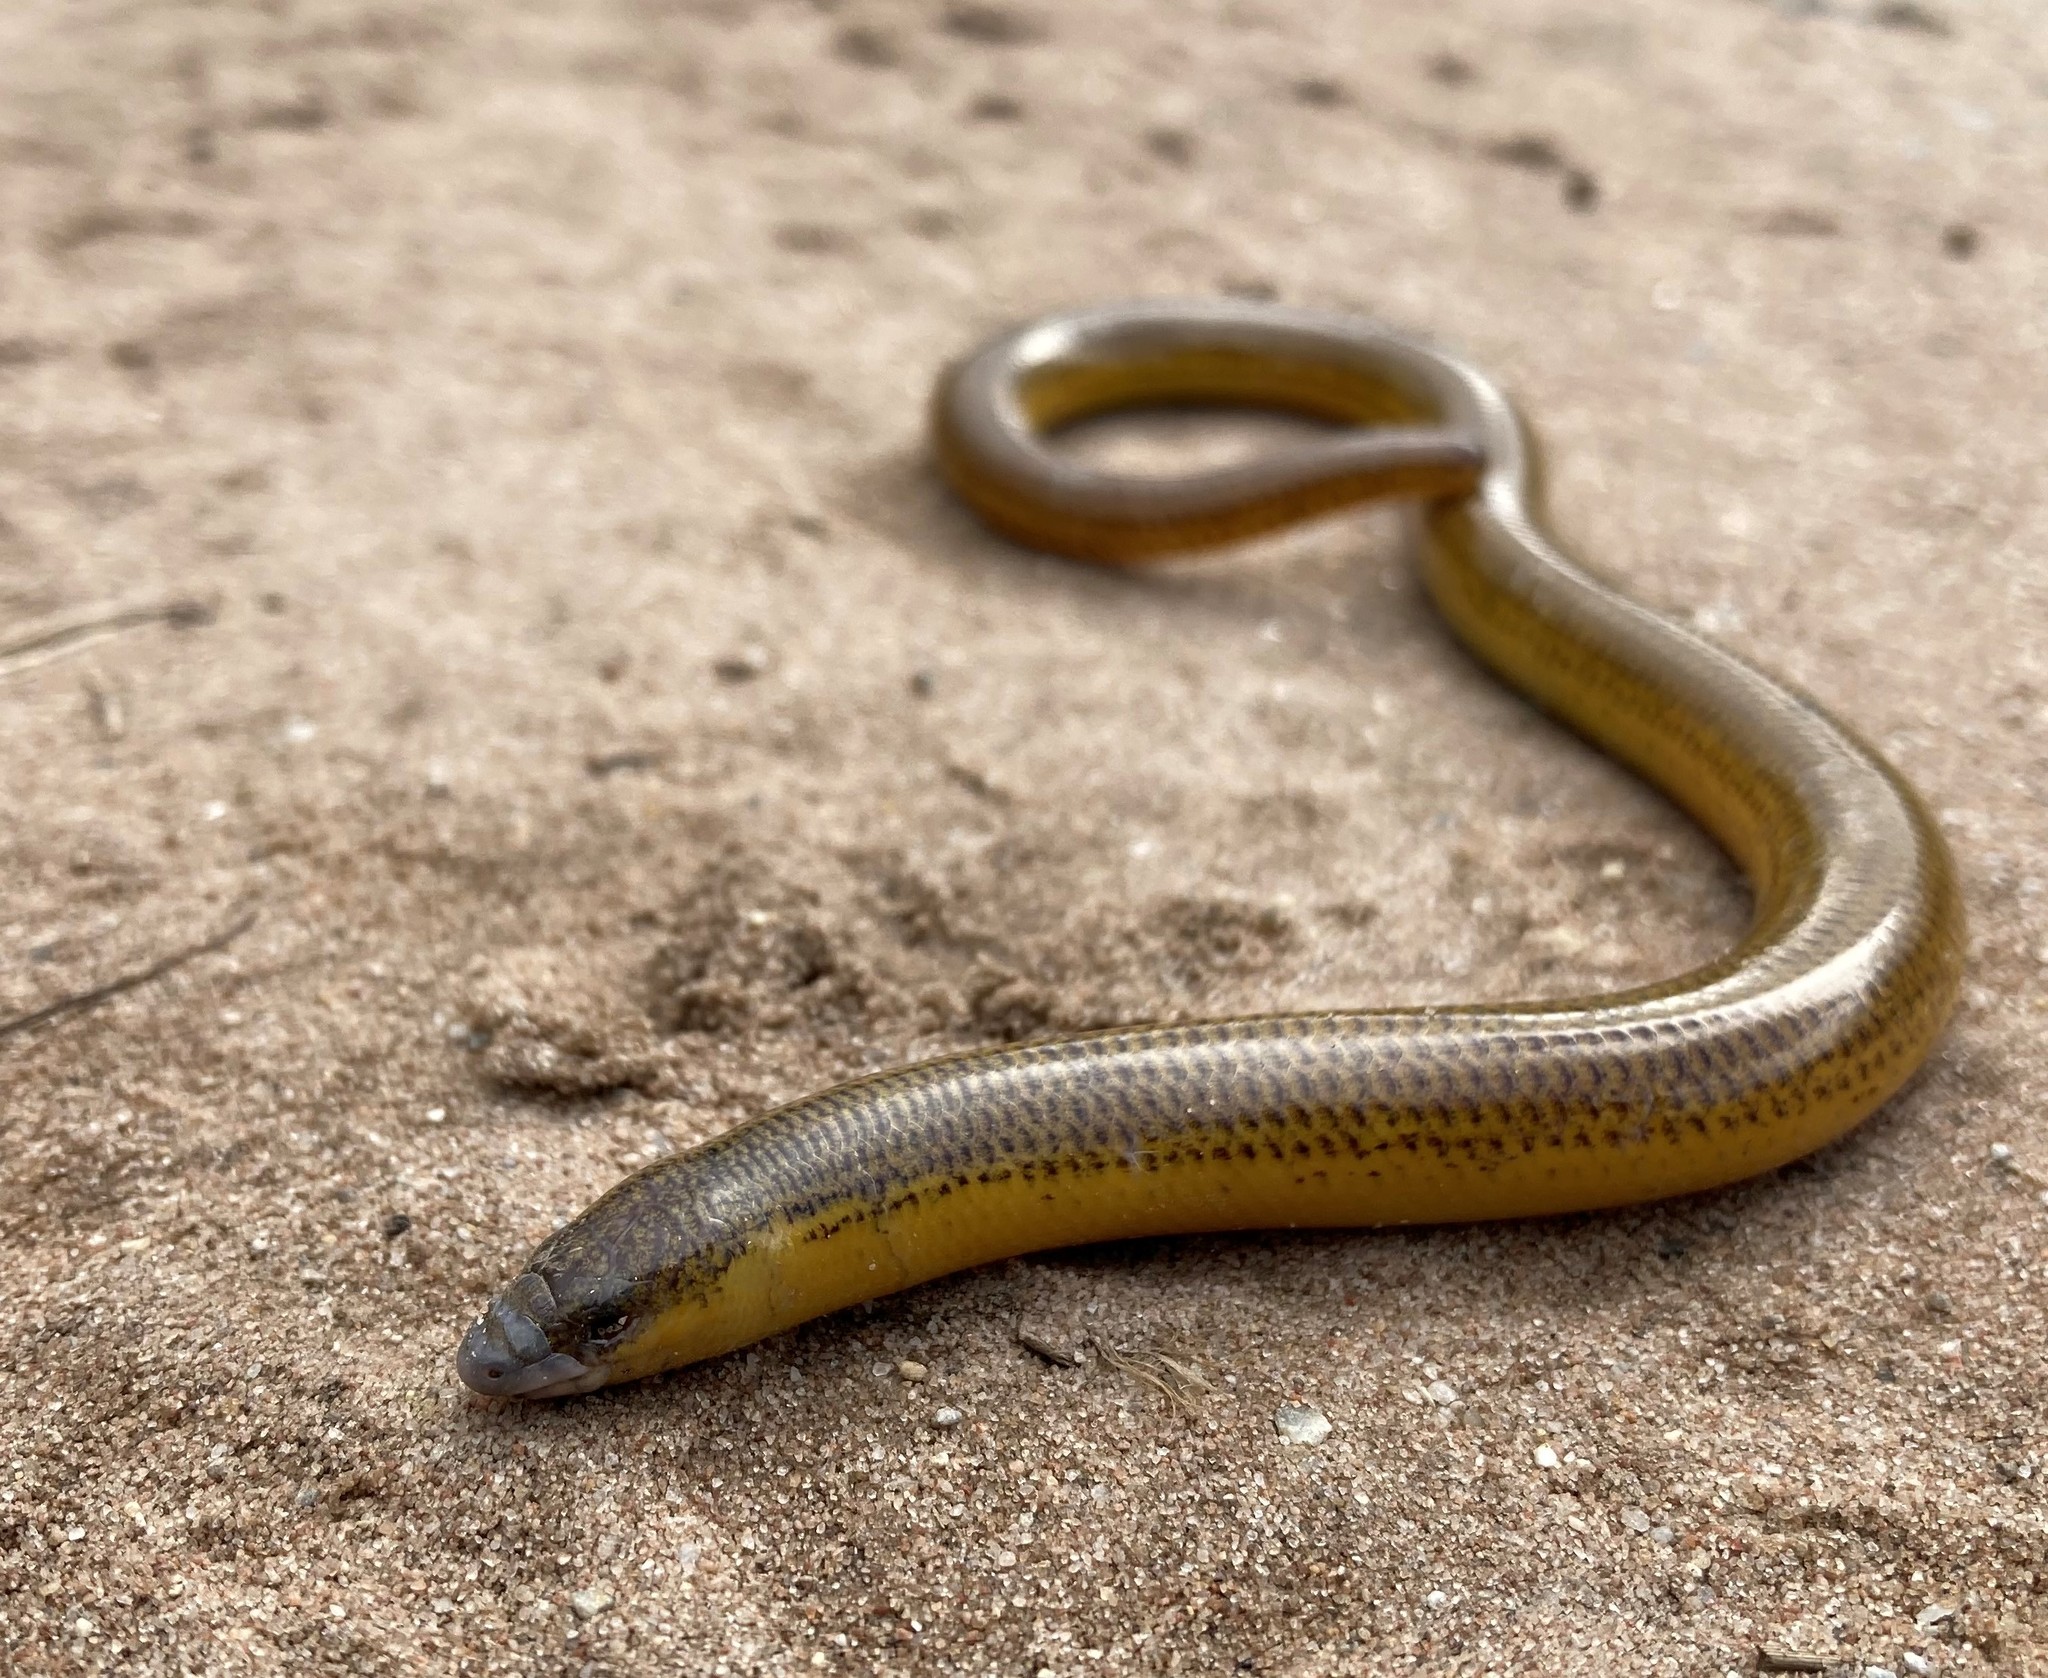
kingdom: Animalia
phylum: Chordata
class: Squamata
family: Scincidae
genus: Acontias
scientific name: Acontias meleagris
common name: Cape legless skink
